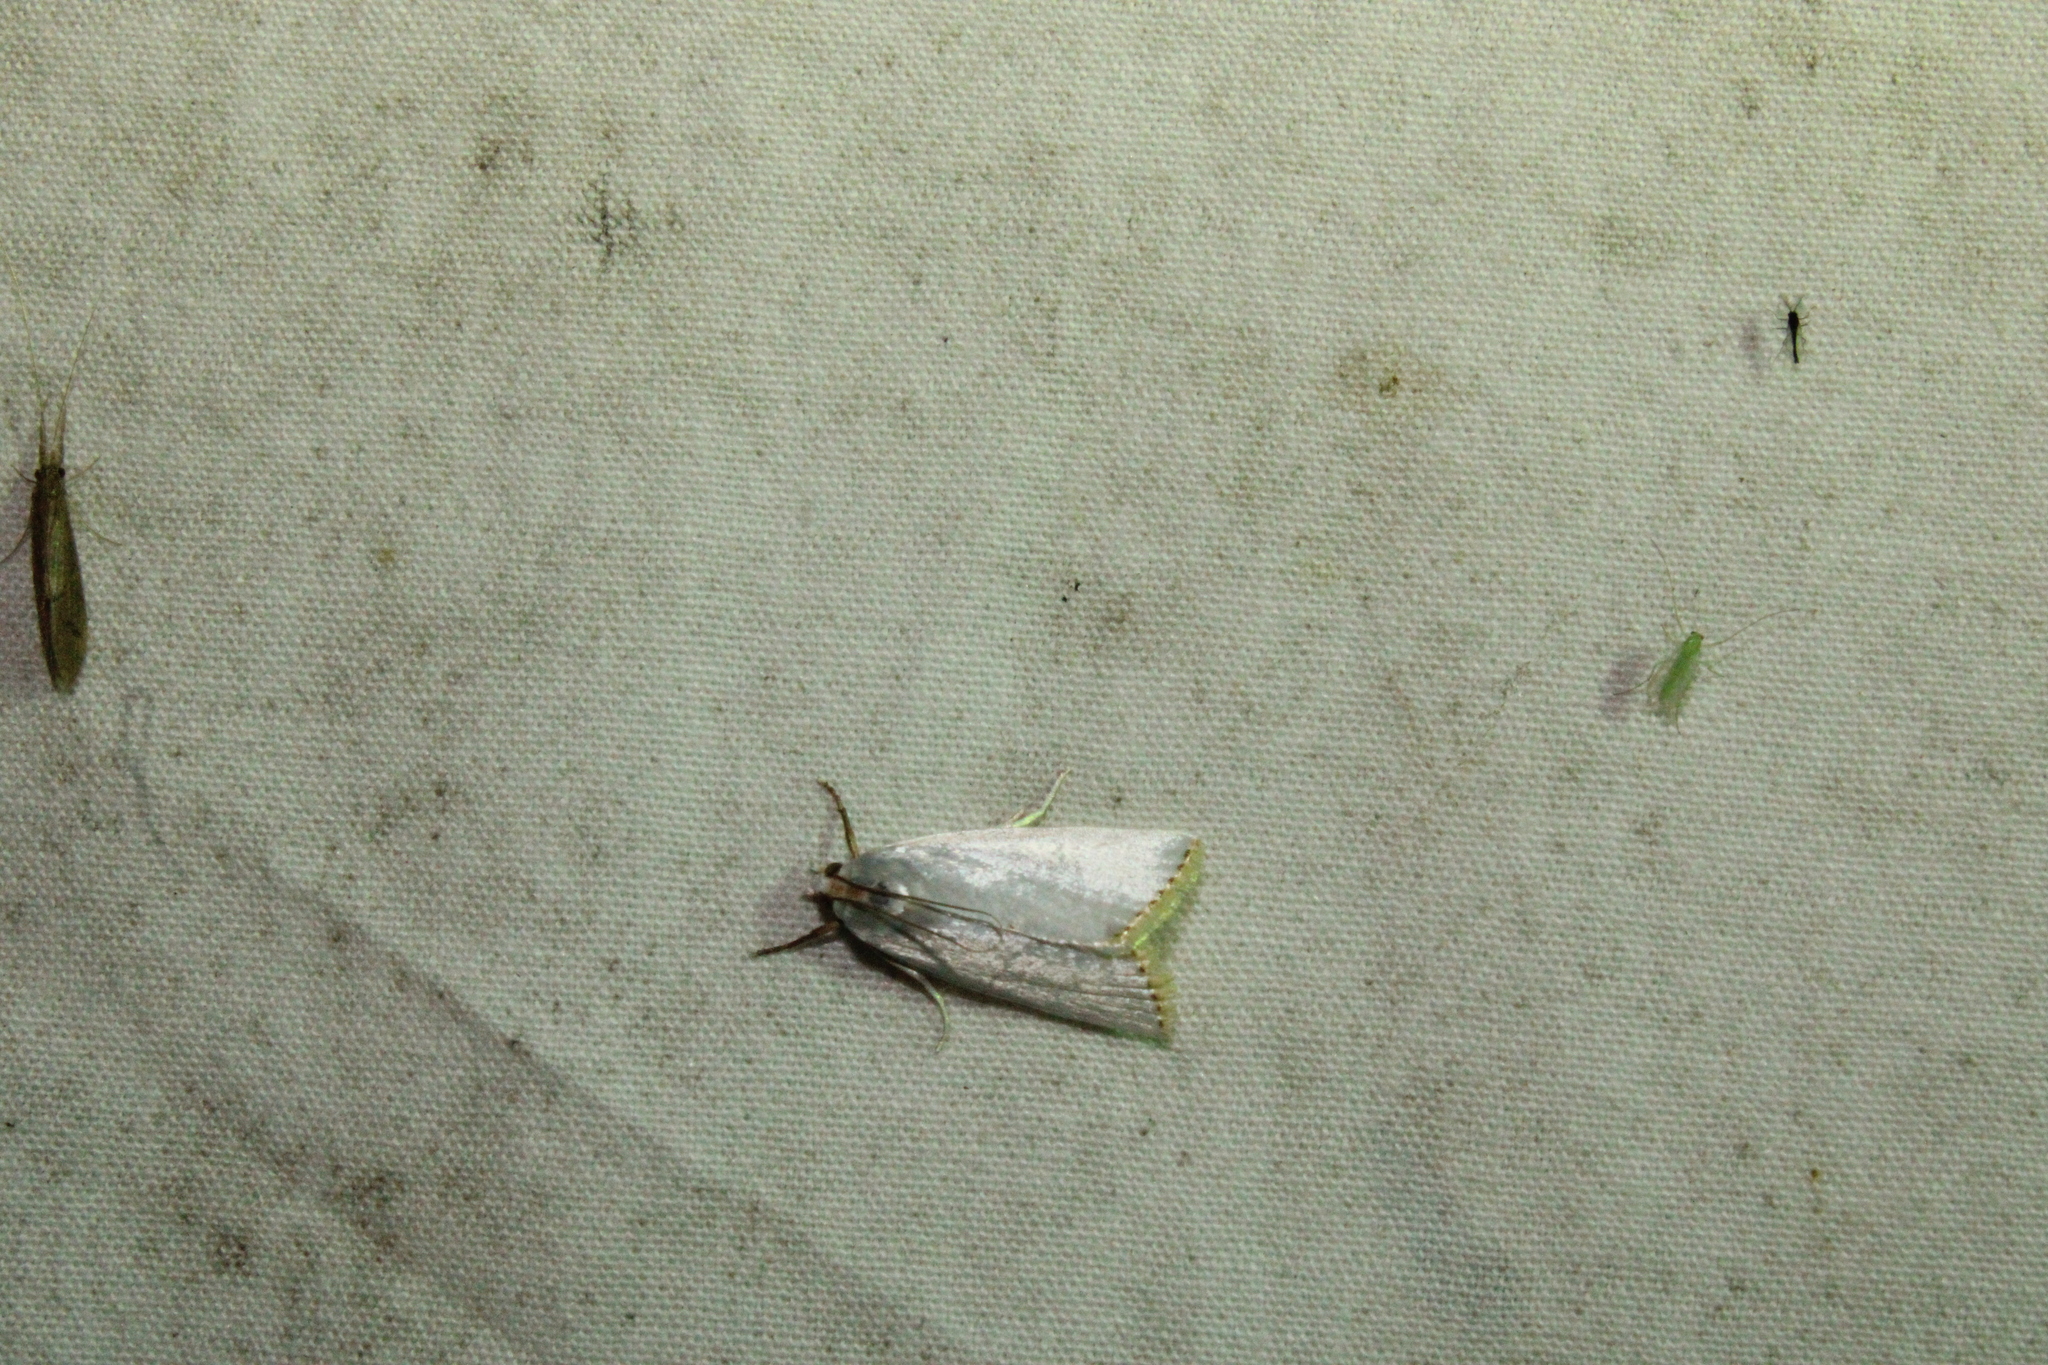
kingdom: Animalia
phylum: Arthropoda
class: Insecta
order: Lepidoptera
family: Crambidae
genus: Argyria
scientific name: Argyria nivalis
